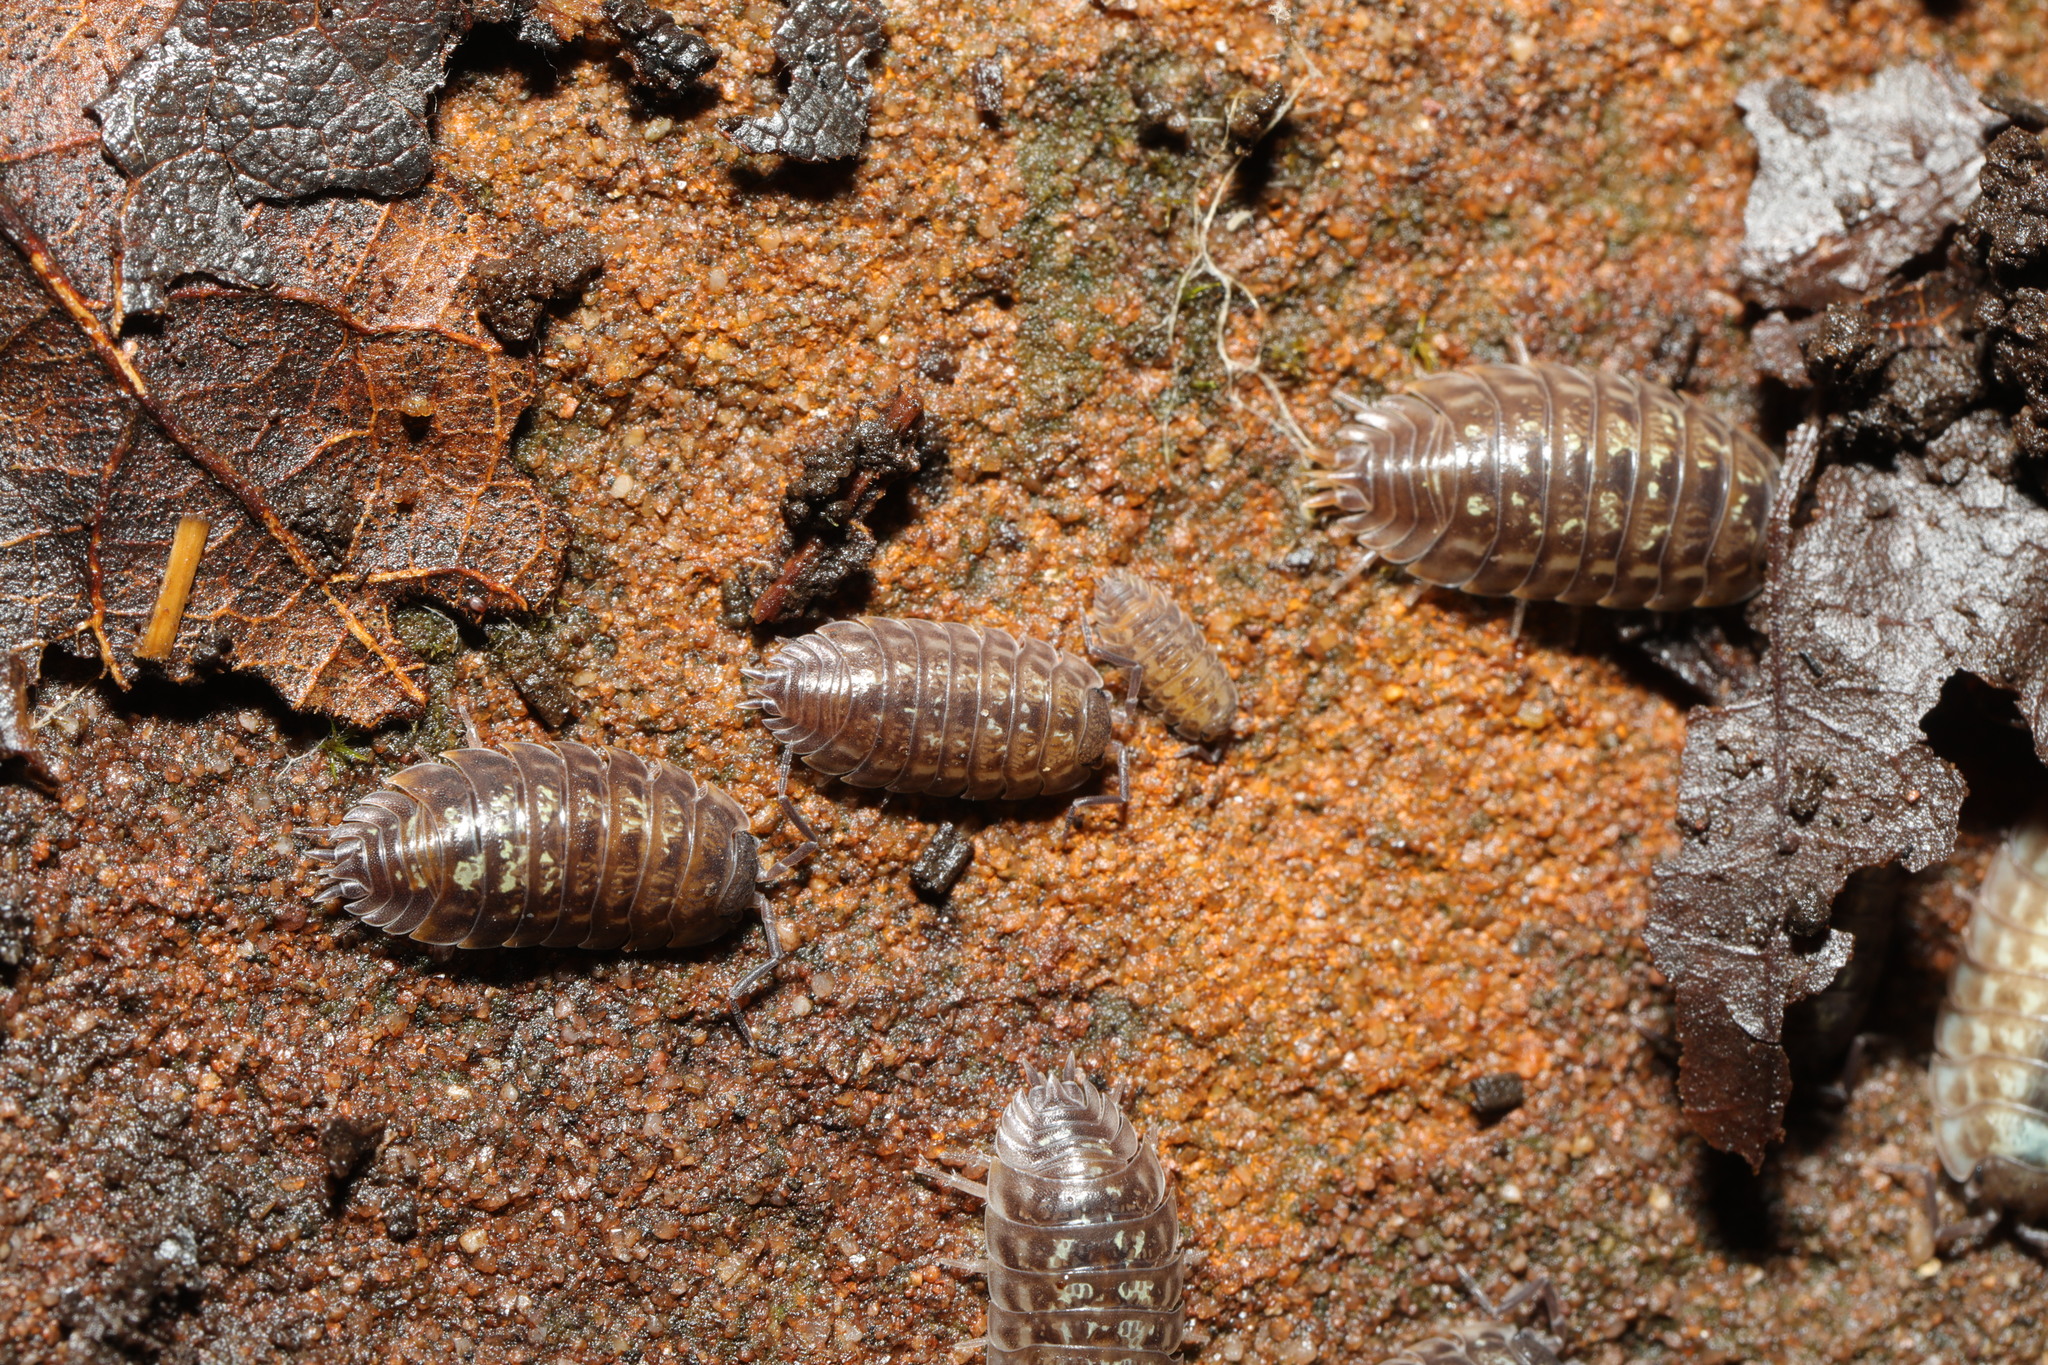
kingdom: Animalia
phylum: Arthropoda
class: Malacostraca
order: Isopoda
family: Oniscidae
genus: Oniscus
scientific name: Oniscus asellus
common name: Common shiny woodlouse
